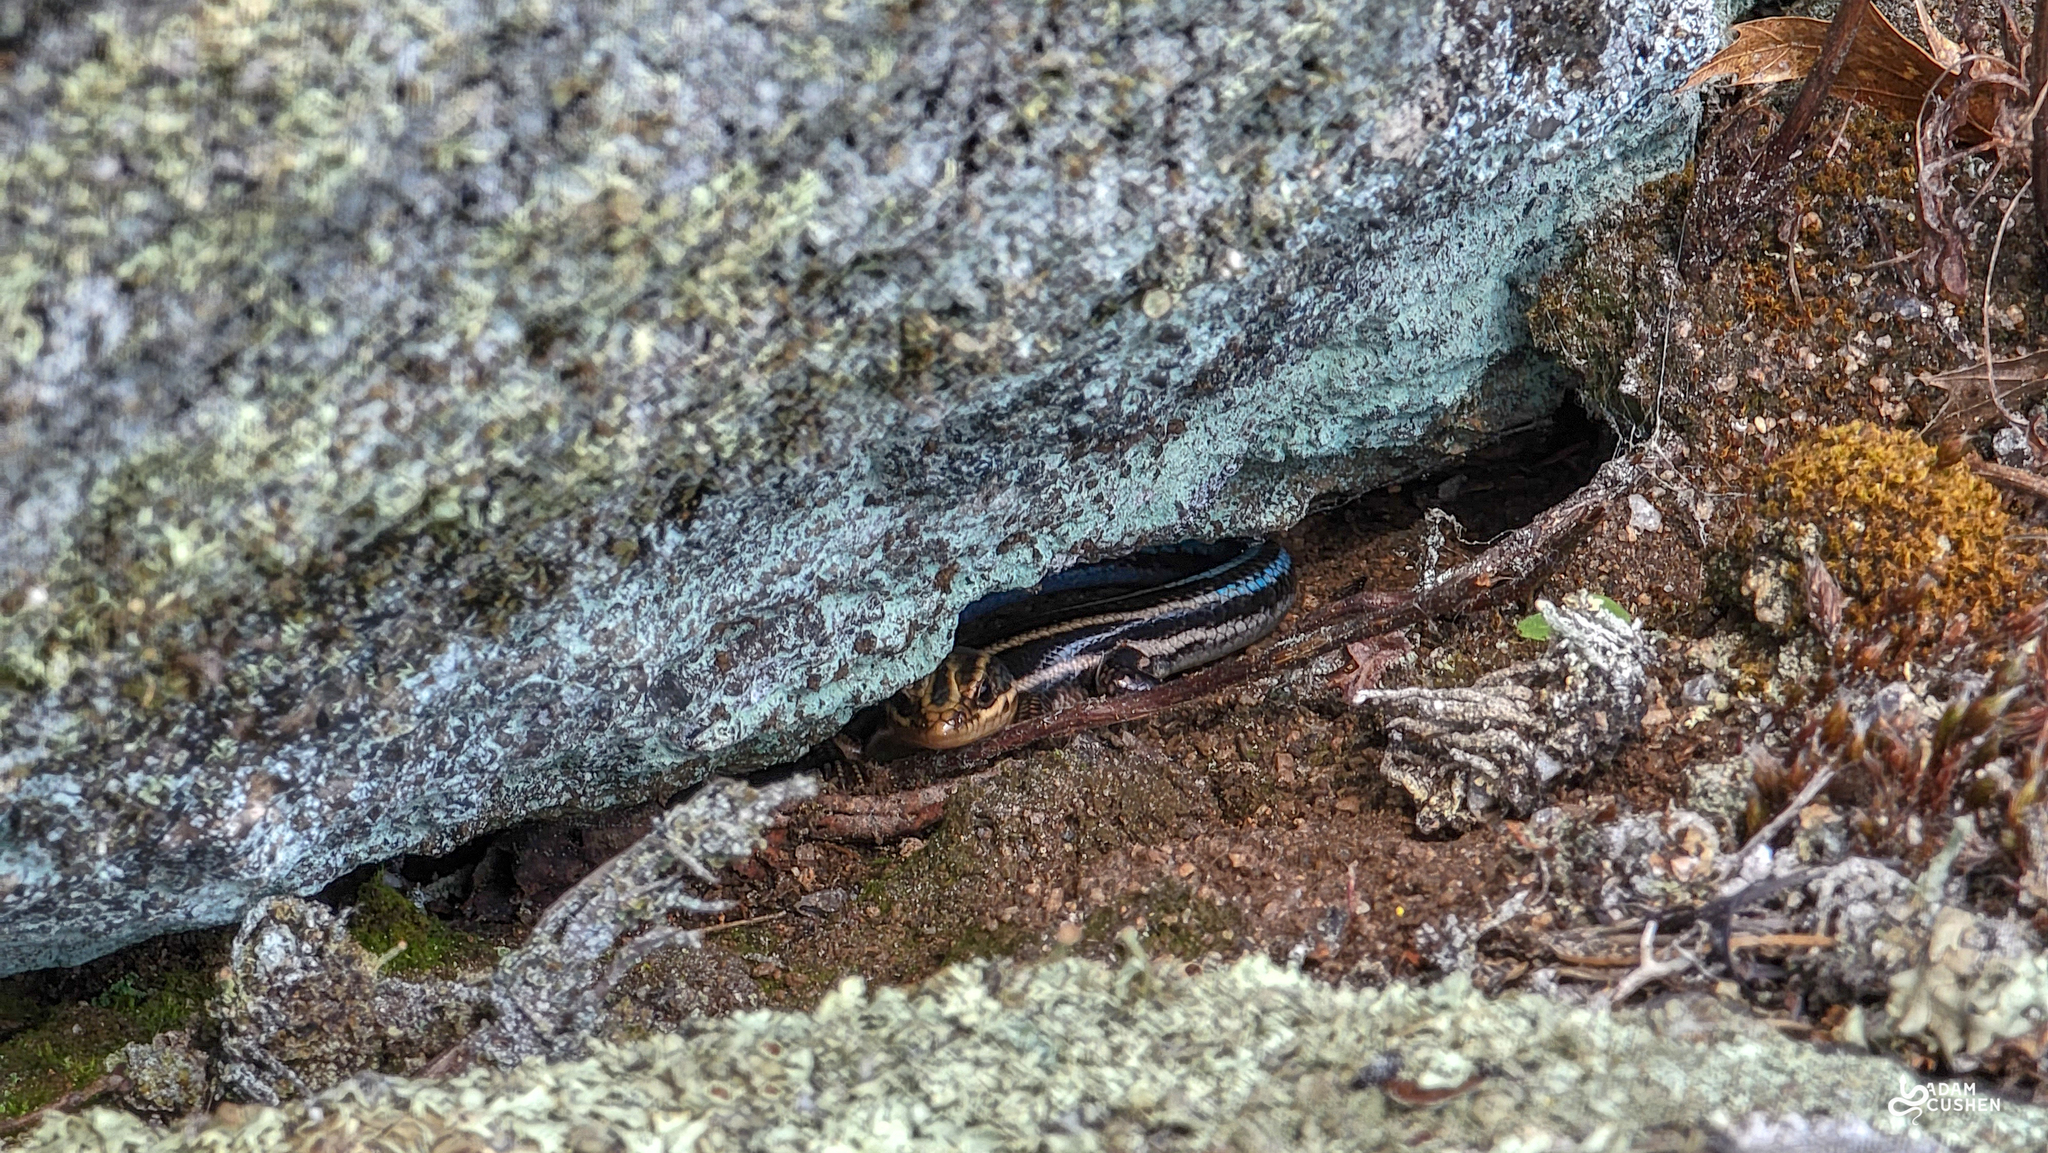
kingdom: Animalia
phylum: Chordata
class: Squamata
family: Scincidae
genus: Plestiodon
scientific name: Plestiodon fasciatus
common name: Five-lined skink
